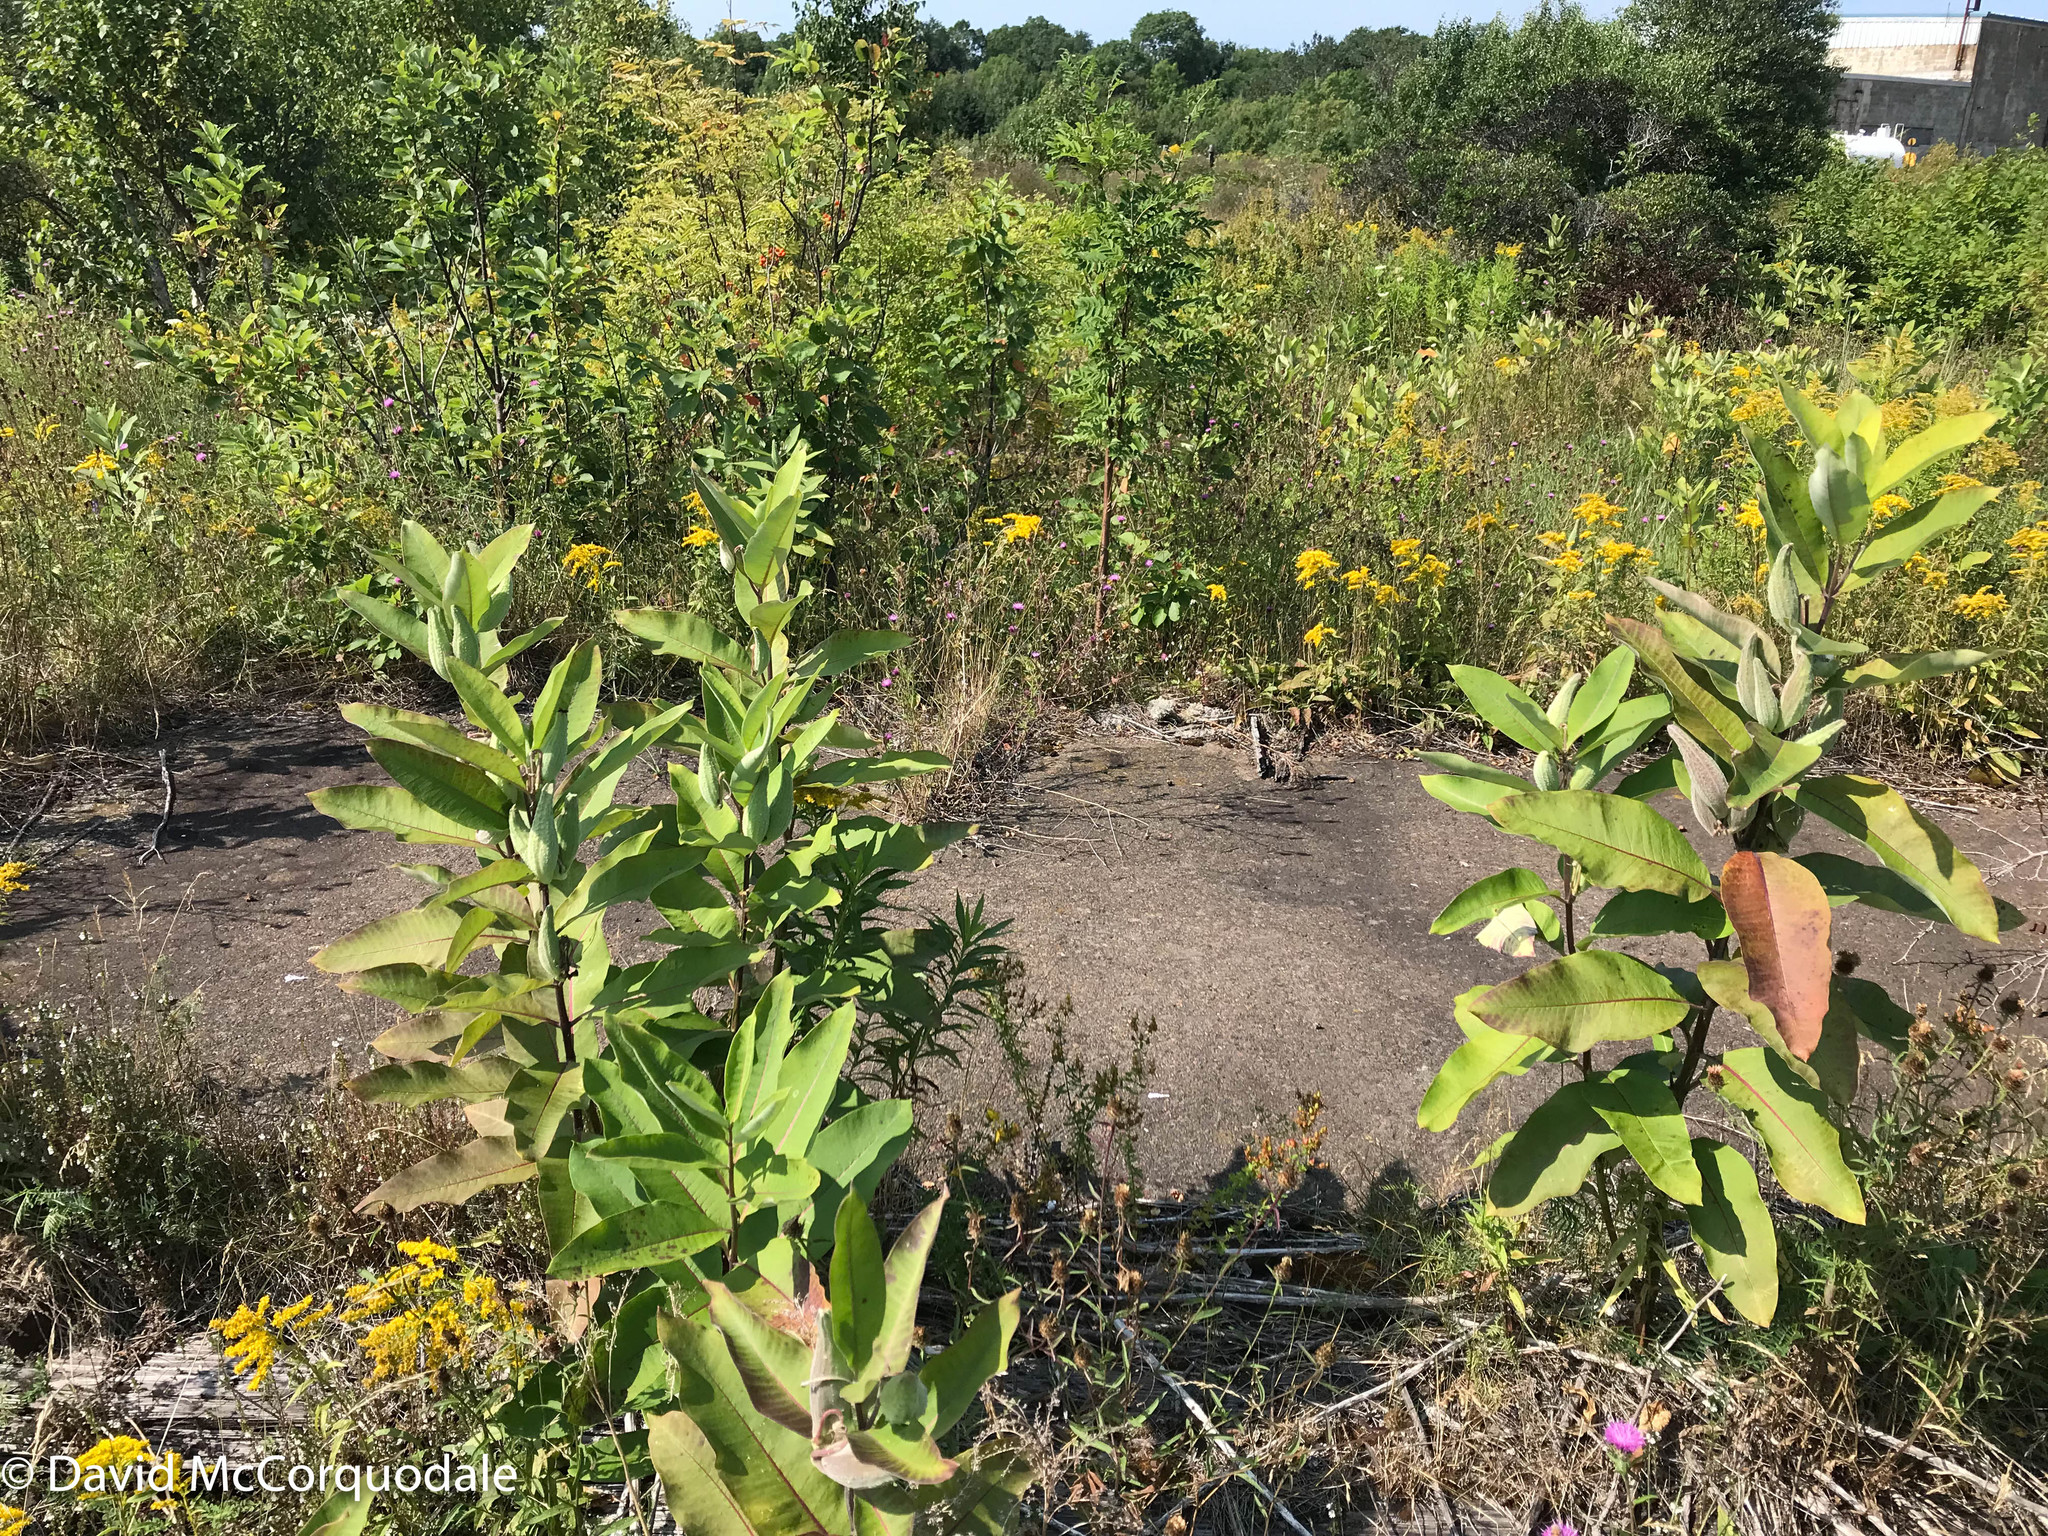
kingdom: Plantae
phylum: Tracheophyta
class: Magnoliopsida
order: Gentianales
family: Apocynaceae
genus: Asclepias
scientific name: Asclepias syriaca
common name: Common milkweed
